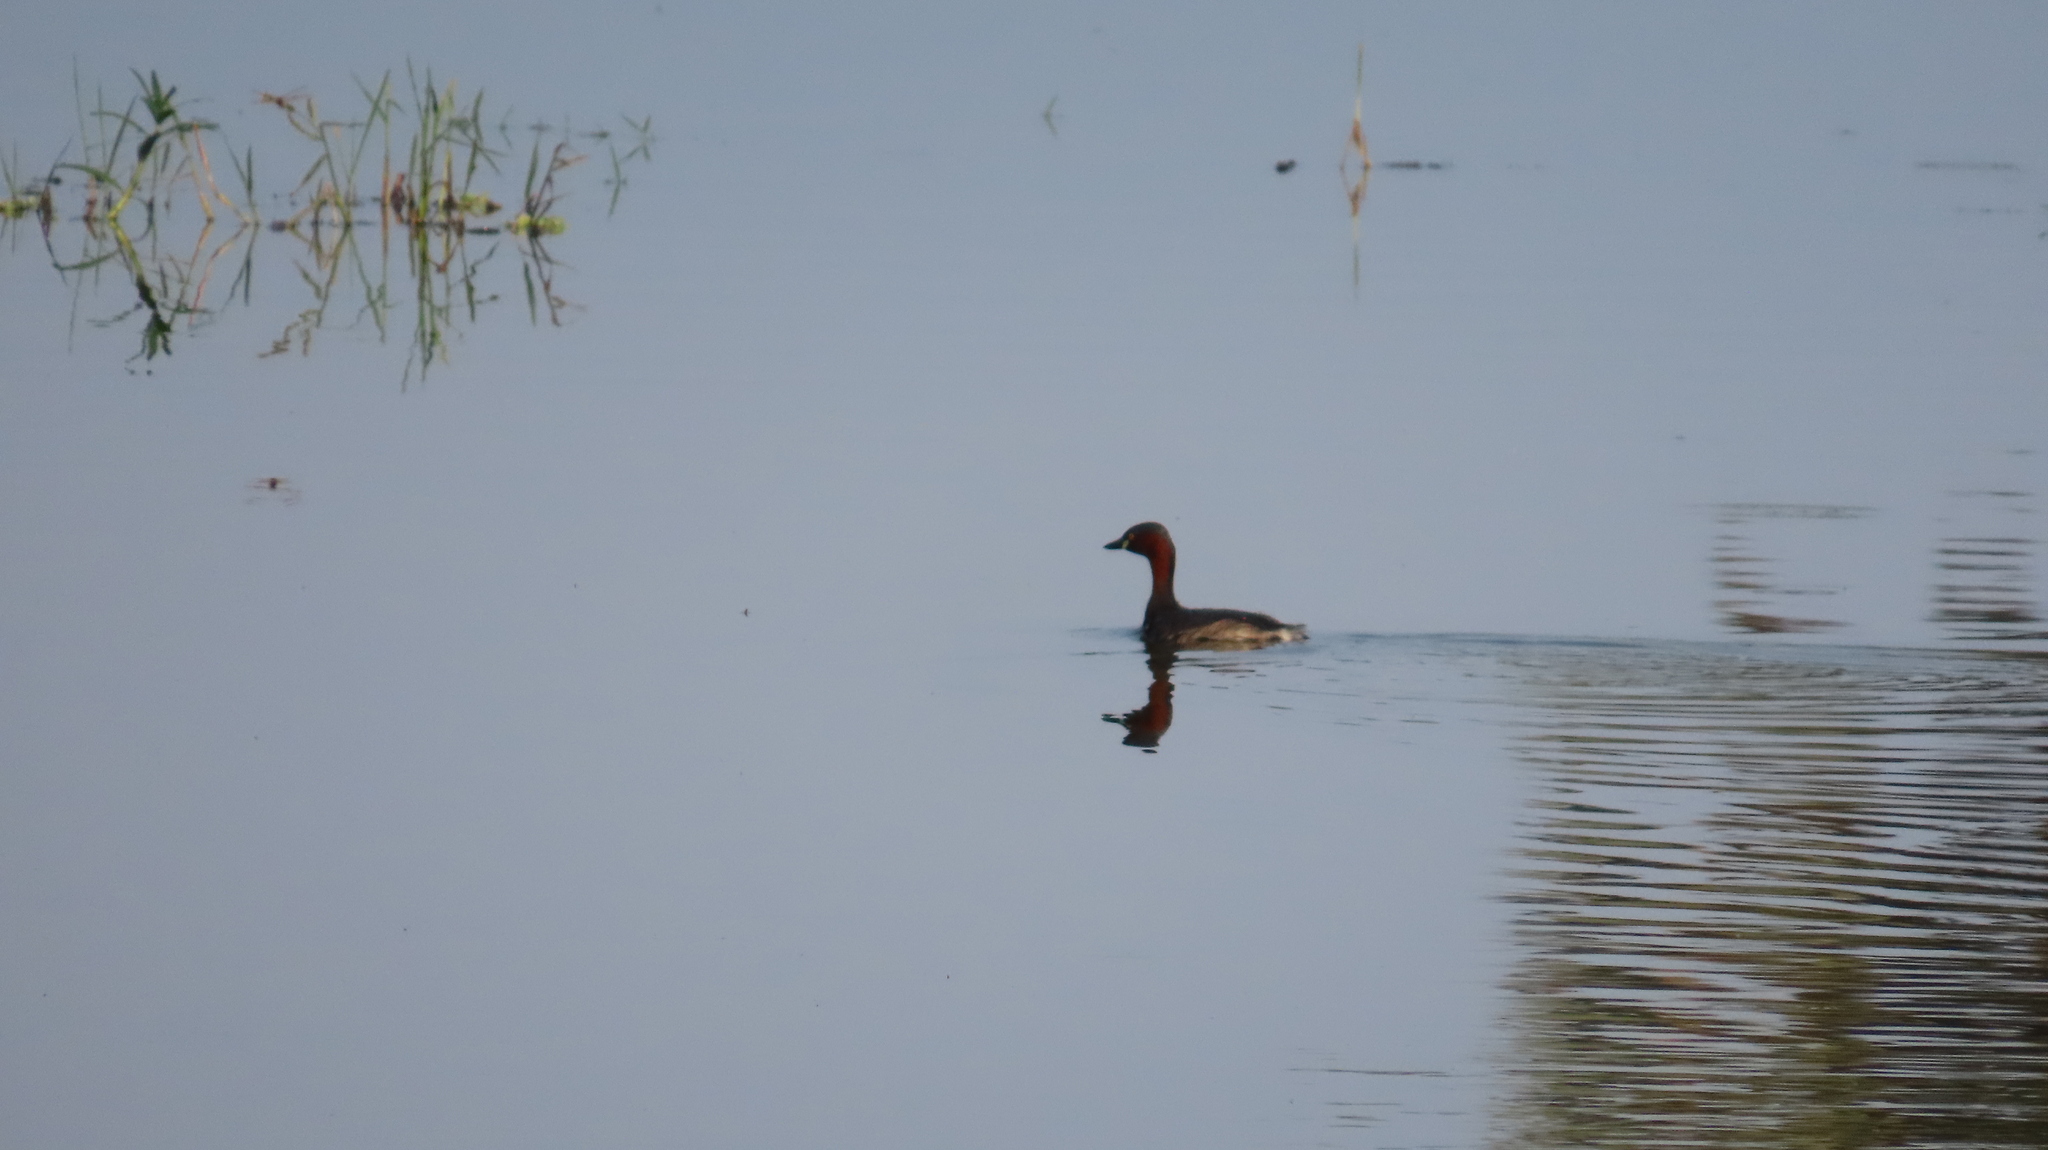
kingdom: Animalia
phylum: Chordata
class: Aves
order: Podicipediformes
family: Podicipedidae
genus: Tachybaptus
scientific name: Tachybaptus ruficollis
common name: Little grebe
